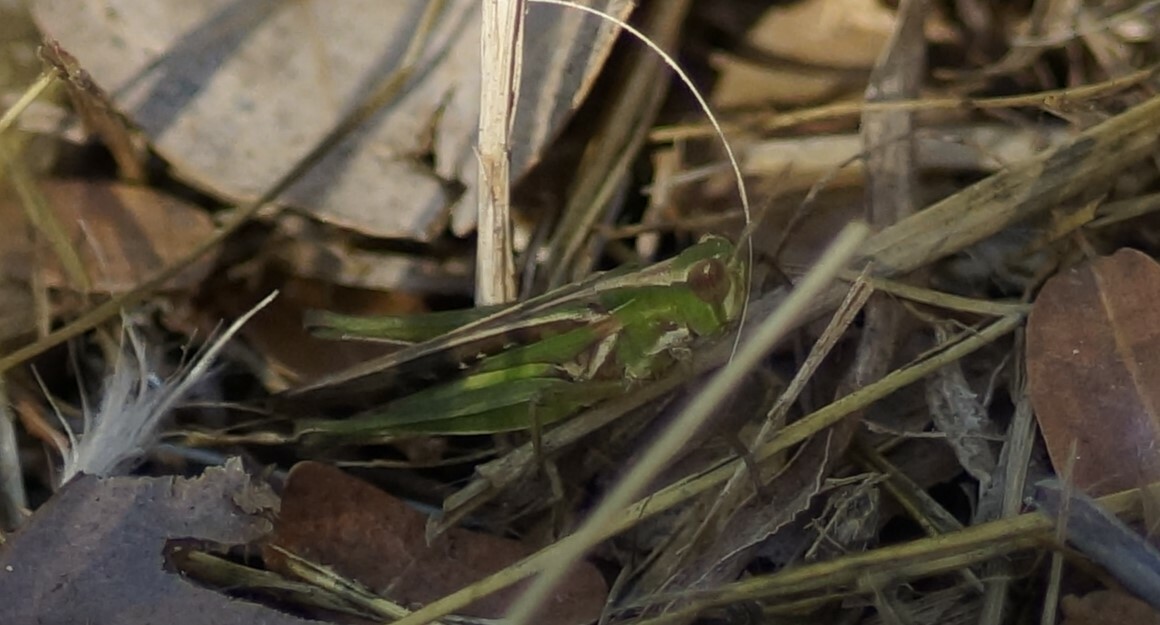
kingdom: Animalia
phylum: Arthropoda
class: Insecta
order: Orthoptera
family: Acrididae
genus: Calephorops
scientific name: Calephorops viridis
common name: Calephorops
